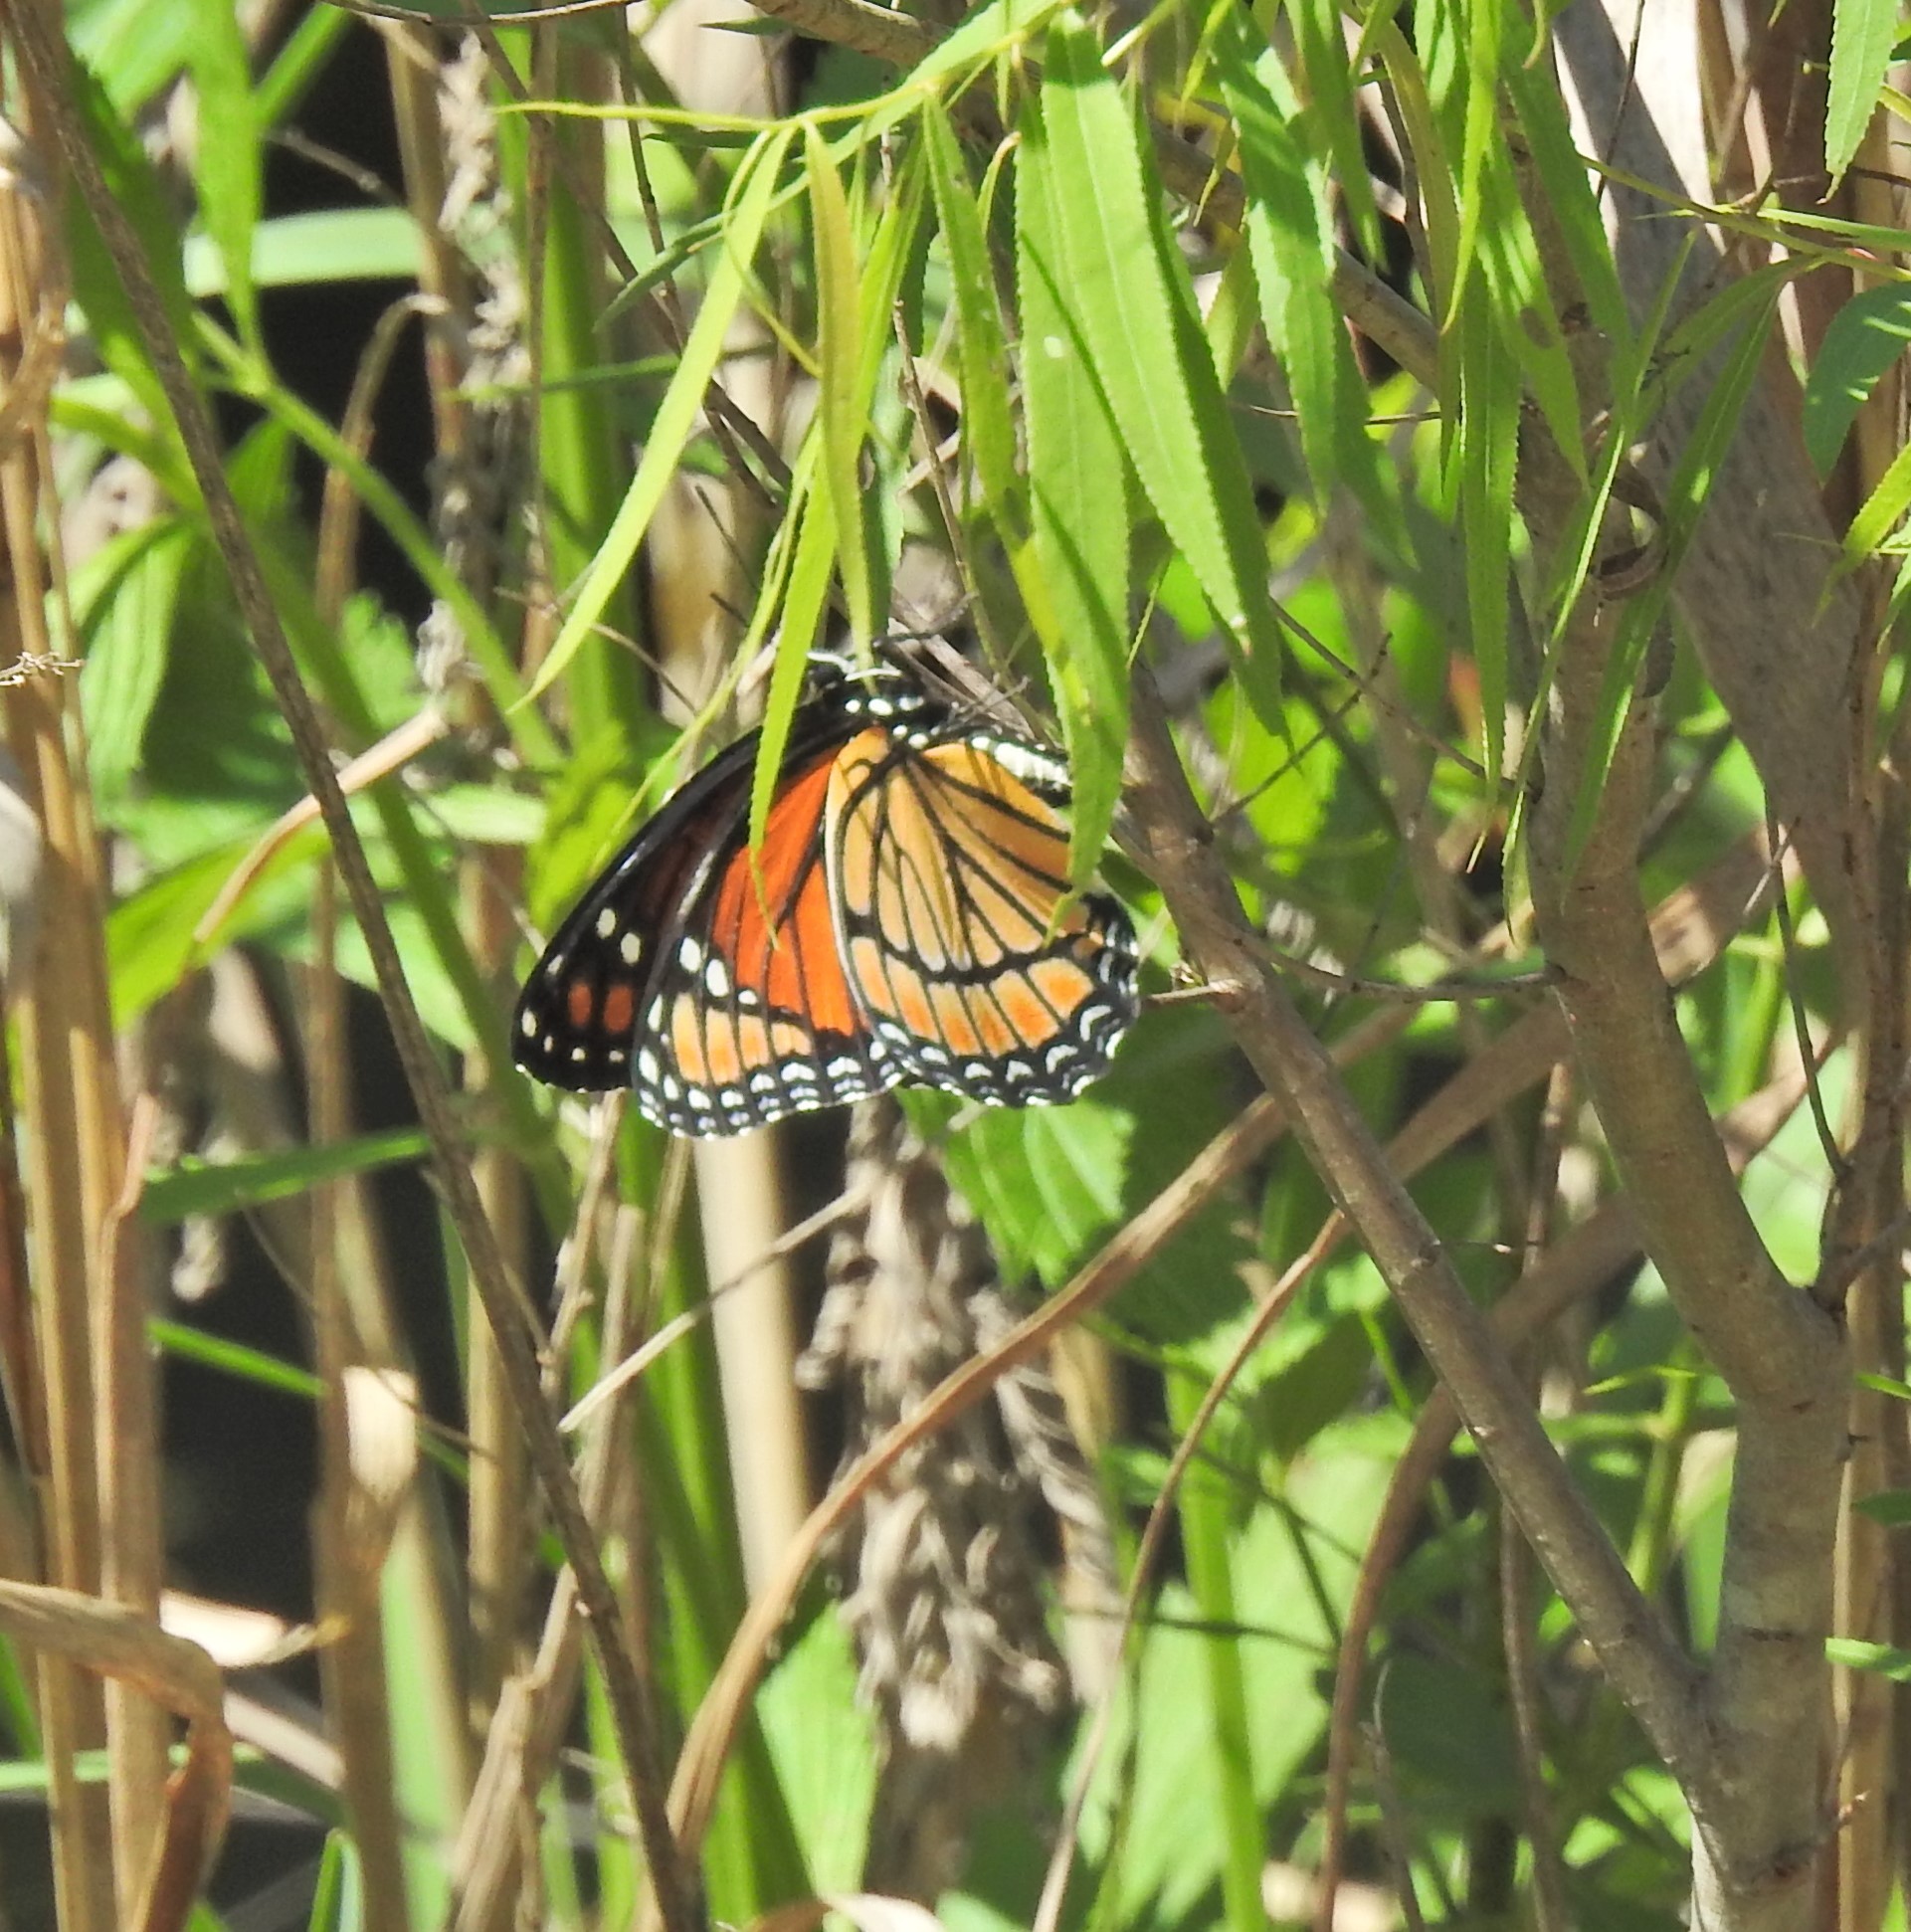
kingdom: Animalia
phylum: Arthropoda
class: Insecta
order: Lepidoptera
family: Nymphalidae
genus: Limenitis
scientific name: Limenitis archippus
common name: Viceroy
